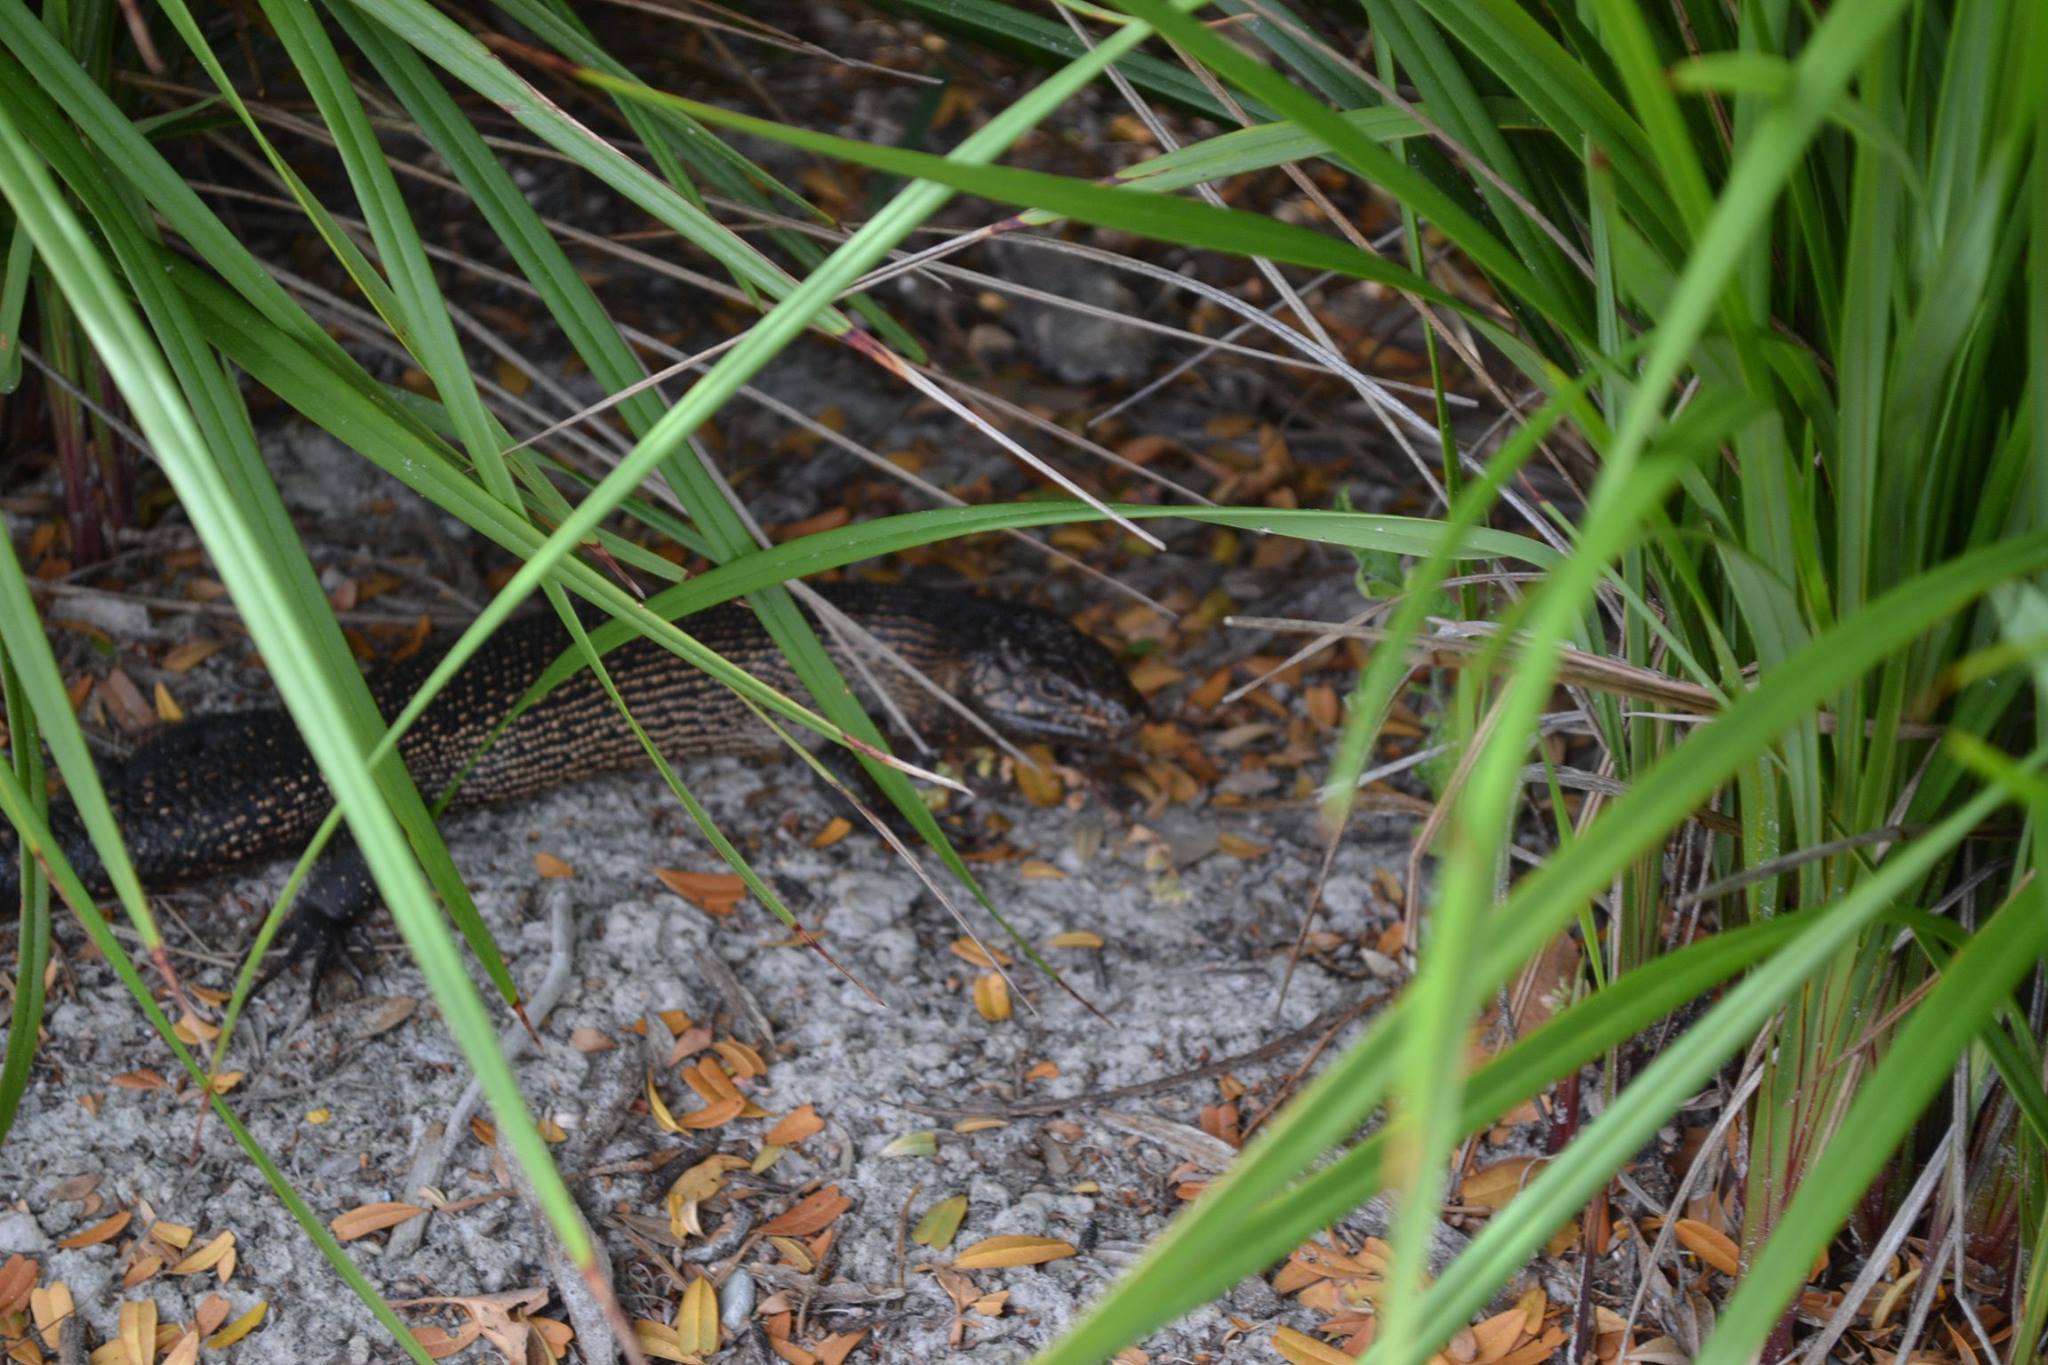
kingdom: Animalia
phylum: Chordata
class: Squamata
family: Scincidae
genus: Egernia
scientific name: Egernia kingii
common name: King's skink
